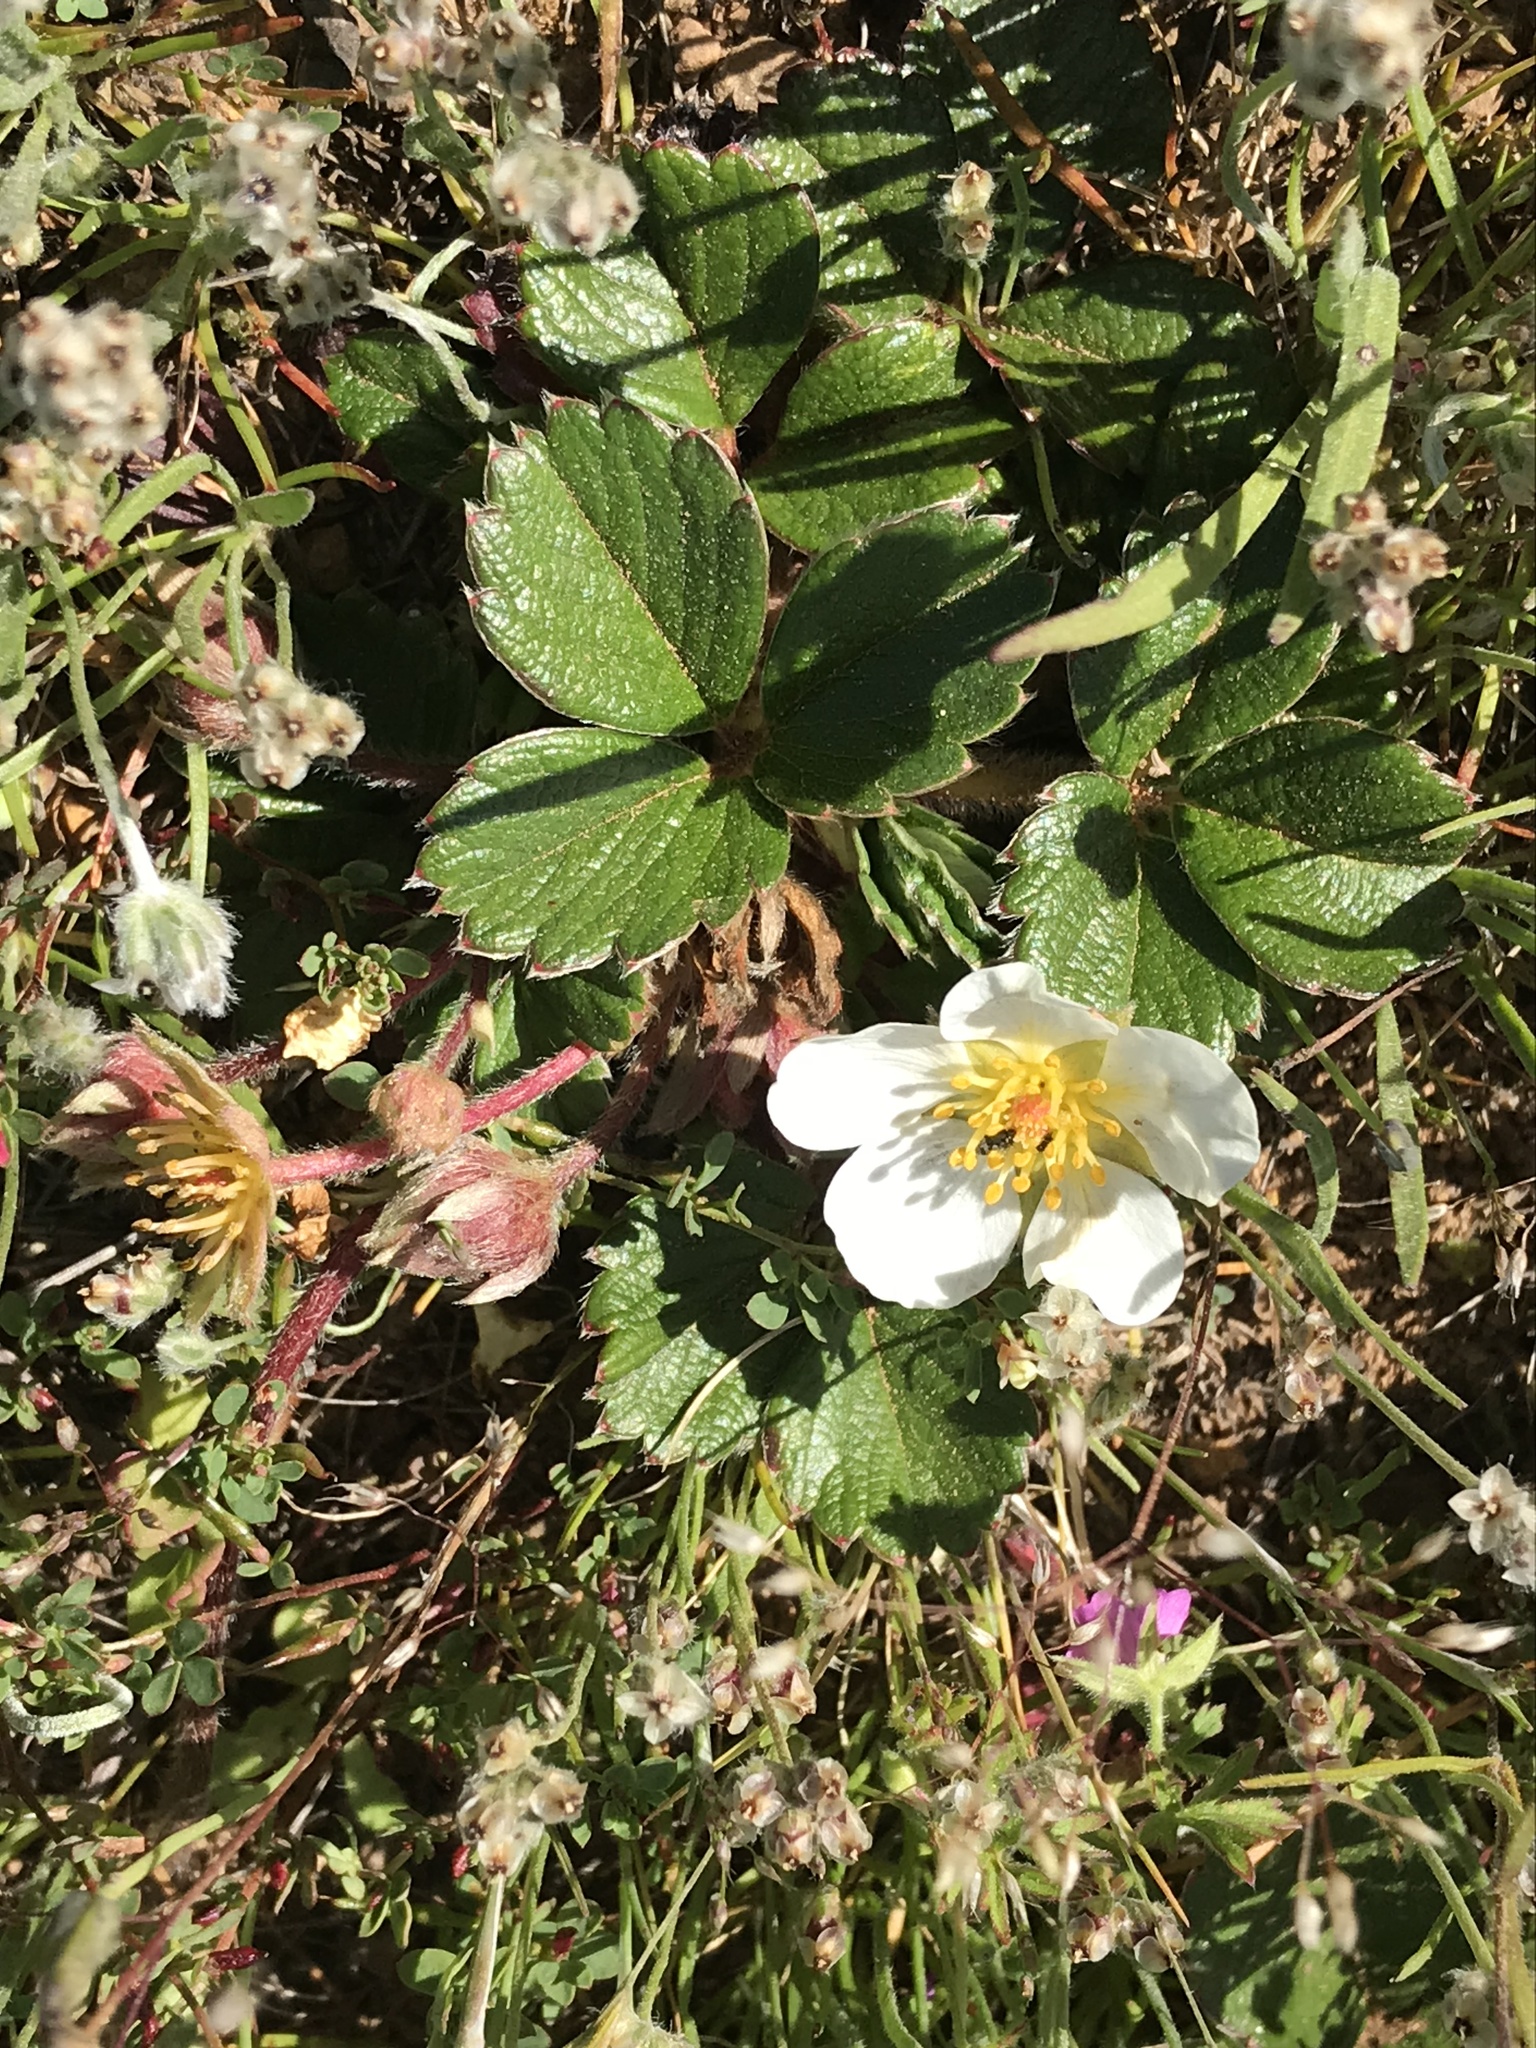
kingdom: Plantae
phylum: Tracheophyta
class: Magnoliopsida
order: Rosales
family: Rosaceae
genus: Fragaria
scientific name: Fragaria chiloensis
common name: Beach strawberry
